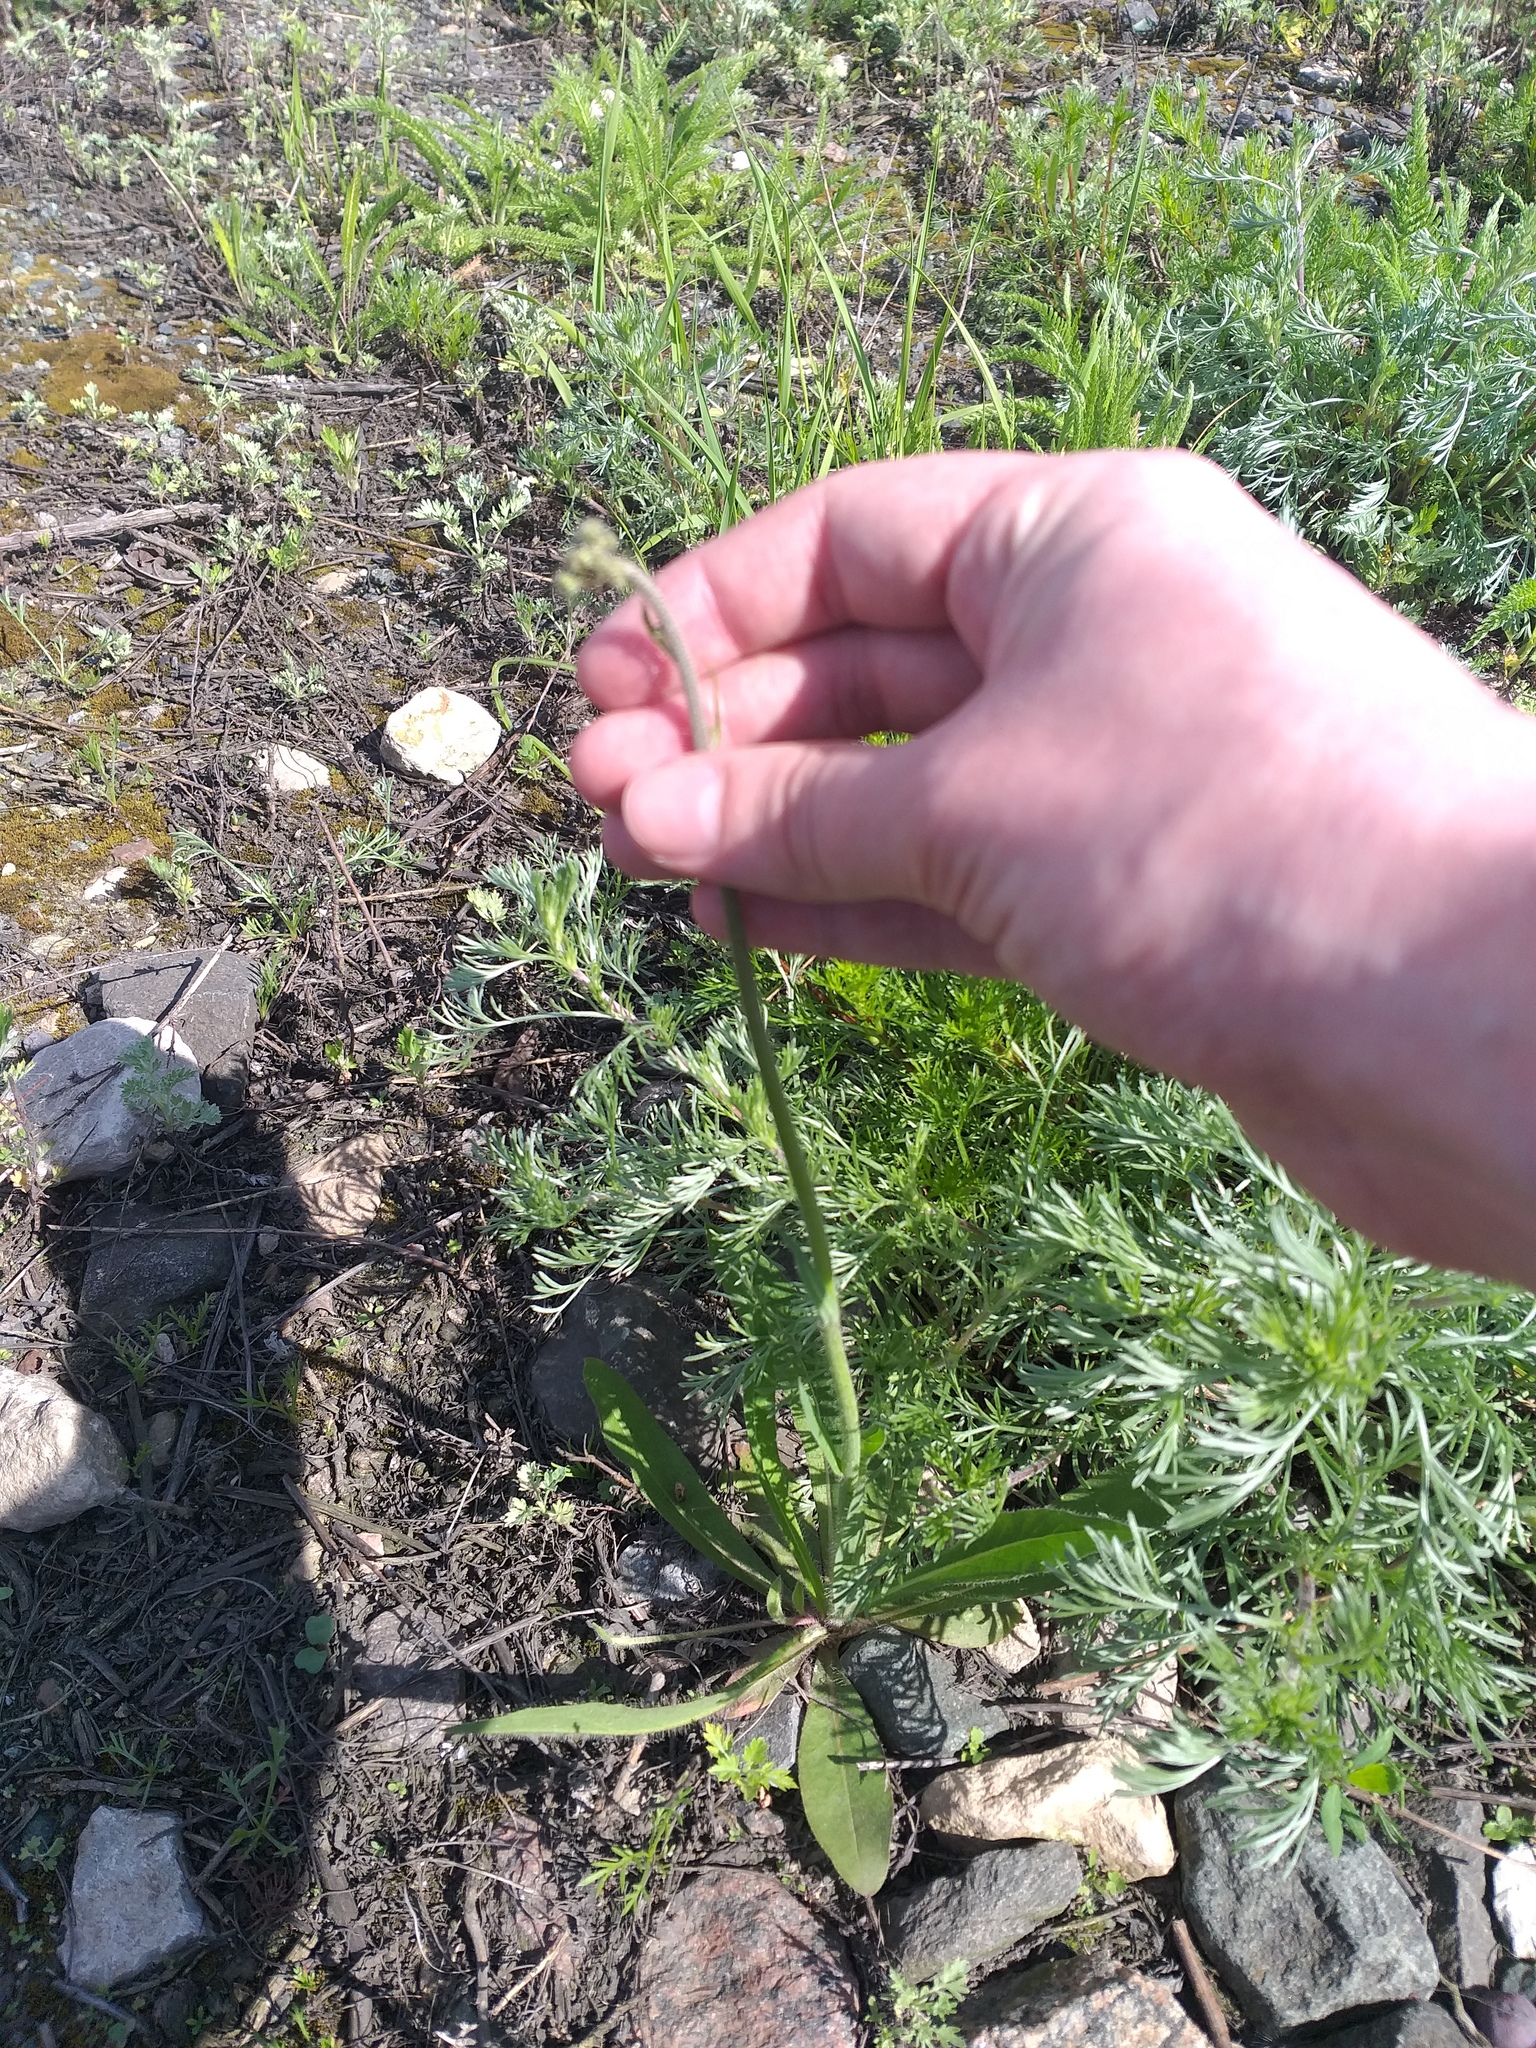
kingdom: Plantae
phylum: Tracheophyta
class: Magnoliopsida
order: Asterales
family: Asteraceae
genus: Pilosella
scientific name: Pilosella
